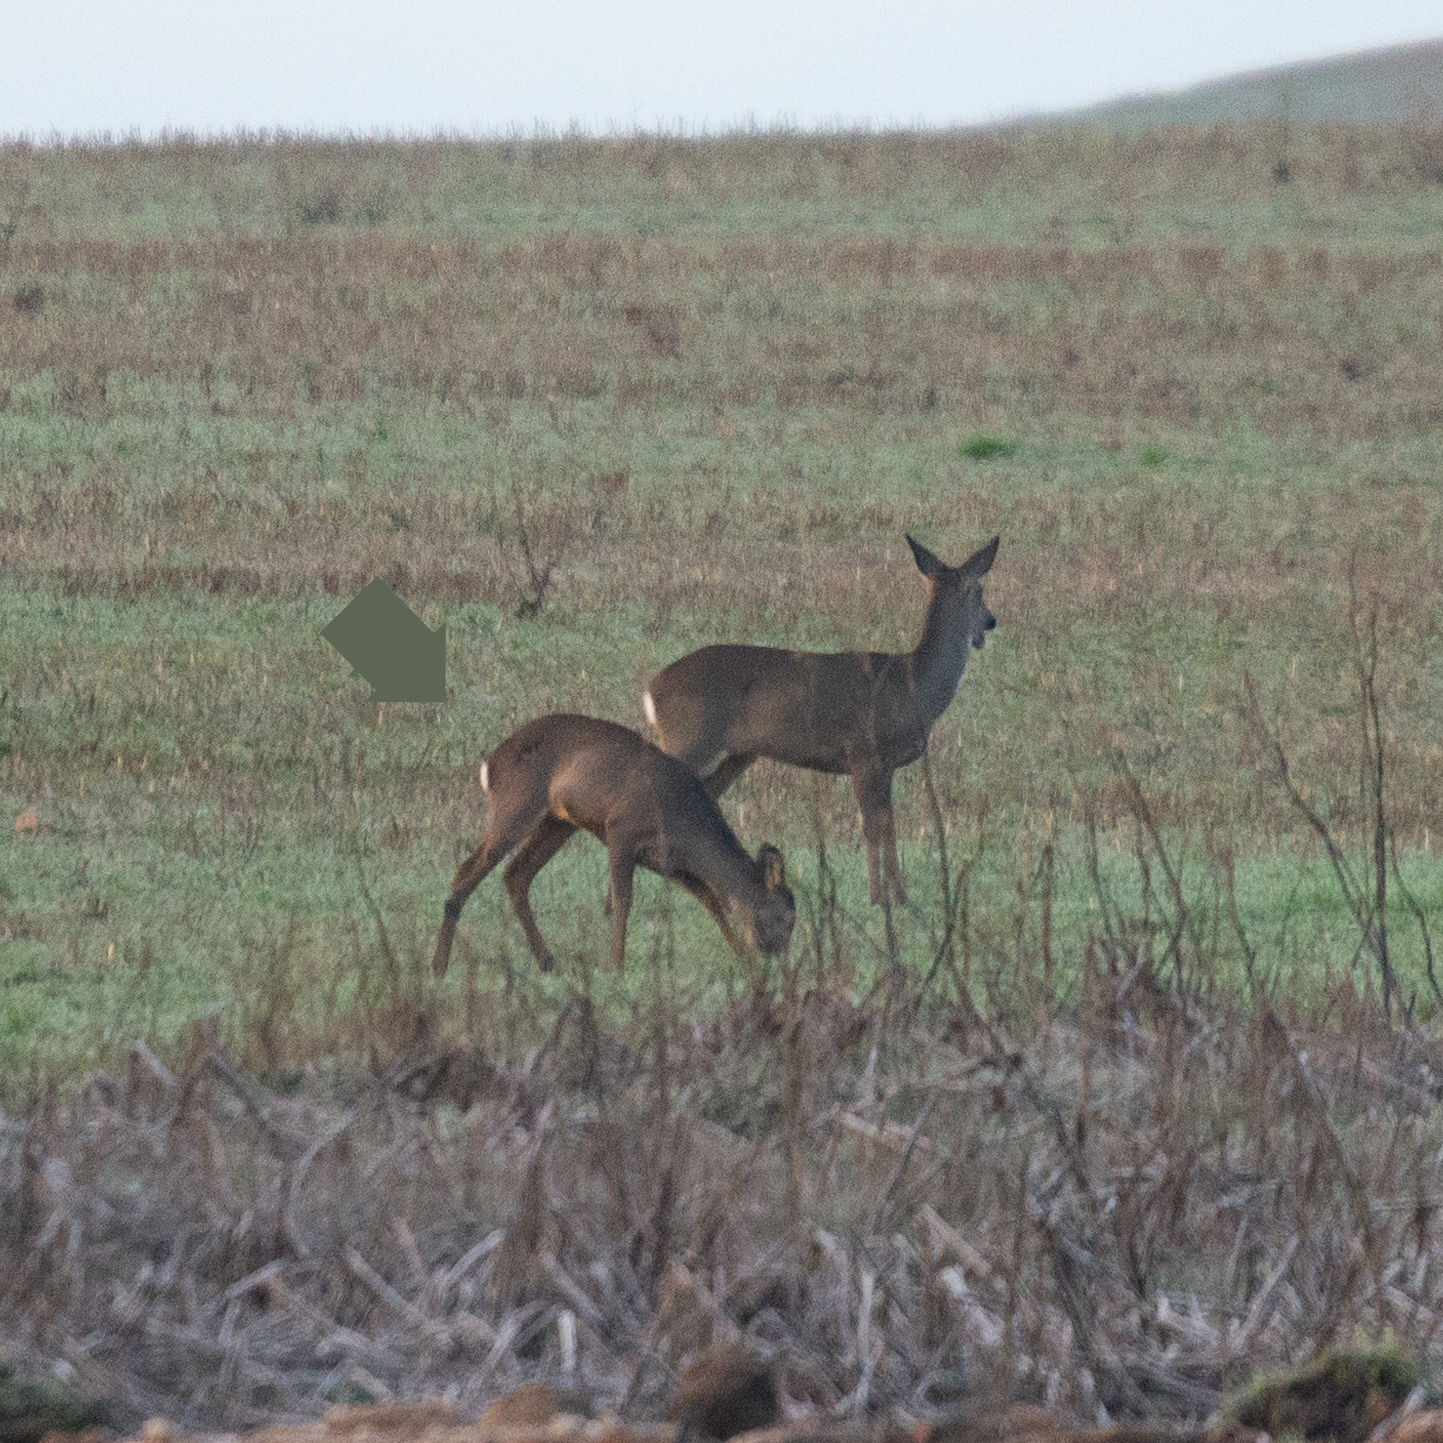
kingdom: Animalia
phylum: Chordata
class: Mammalia
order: Artiodactyla
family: Cervidae
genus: Capreolus
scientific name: Capreolus capreolus
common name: Western roe deer
